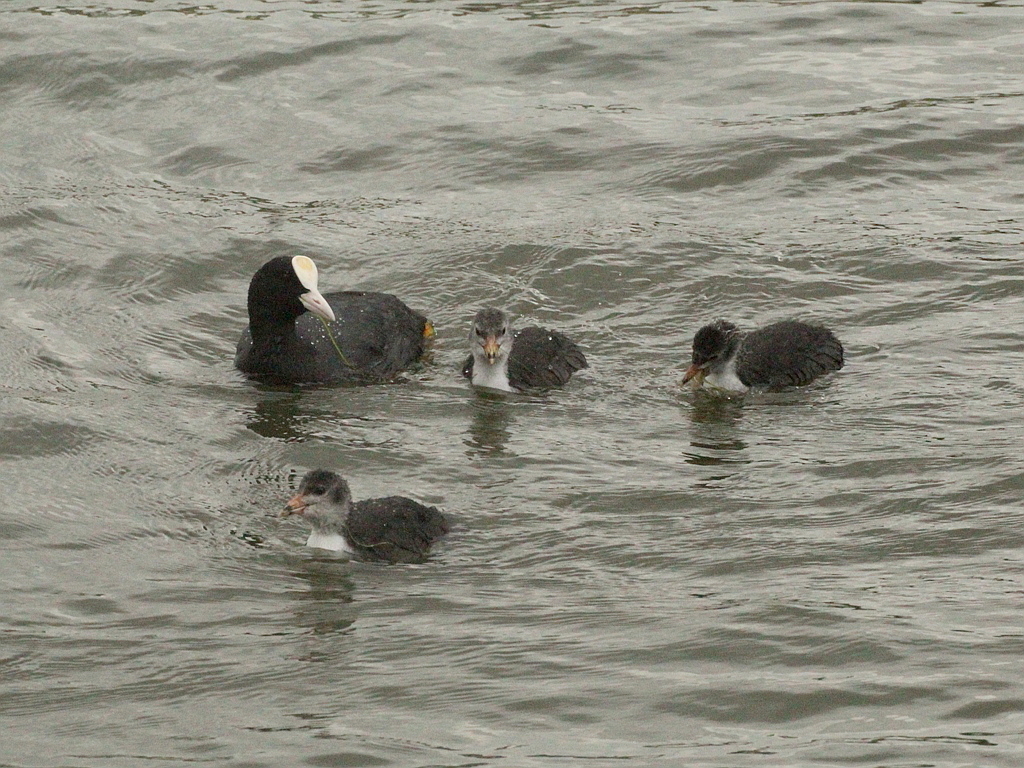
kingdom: Animalia
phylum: Chordata
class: Aves
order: Gruiformes
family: Rallidae
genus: Fulica
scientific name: Fulica atra
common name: Eurasian coot
